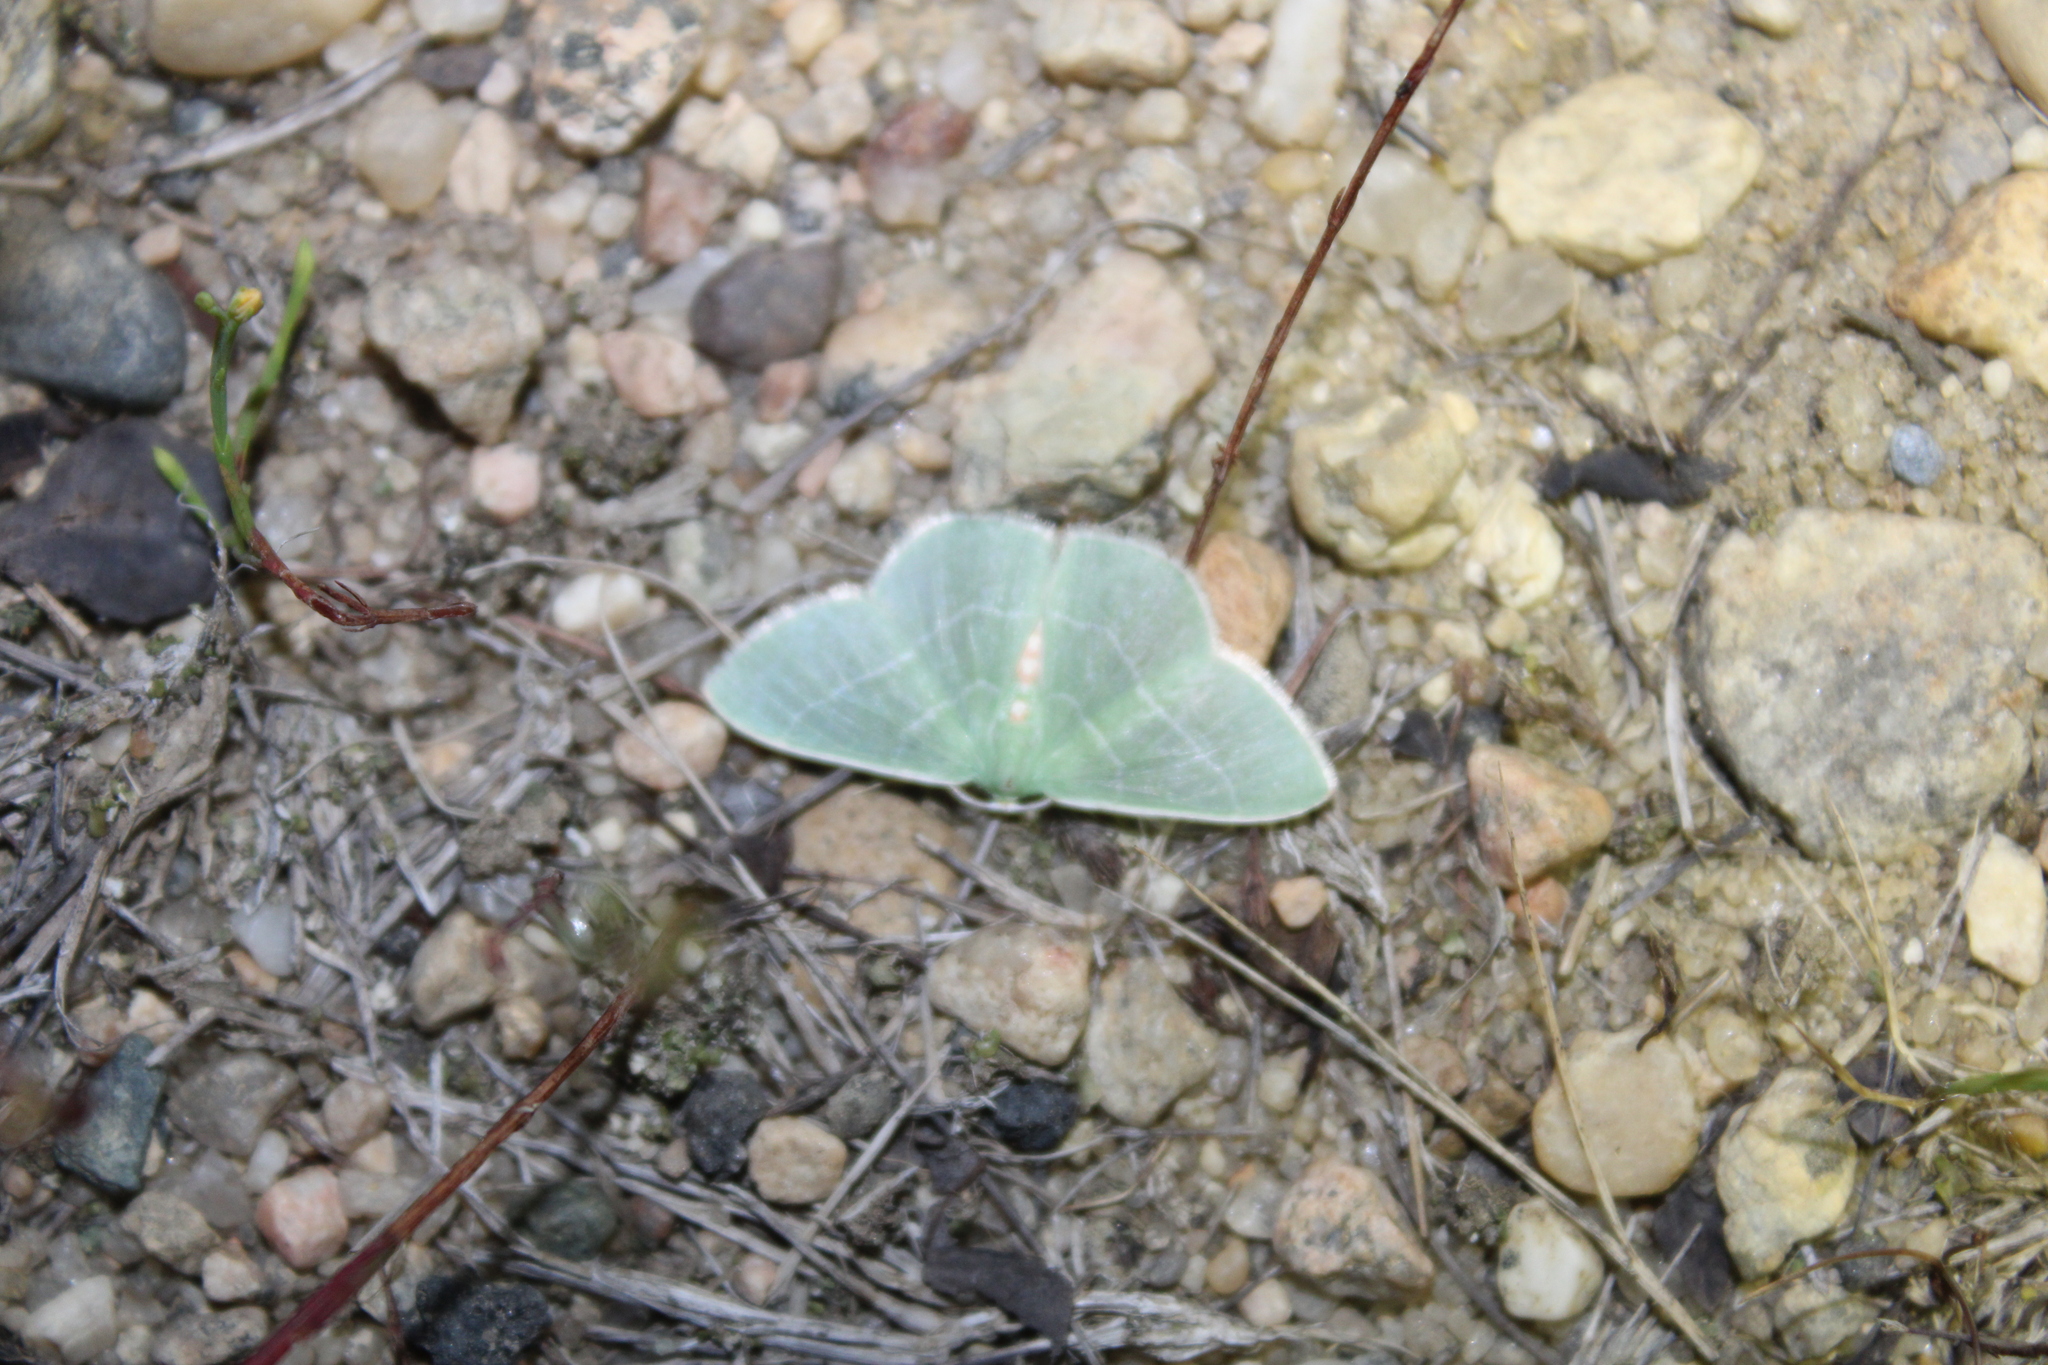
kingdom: Animalia
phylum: Arthropoda
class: Insecta
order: Lepidoptera
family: Geometridae
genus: Nemoria
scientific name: Nemoria bistriaria
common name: Red-fringed emerald
